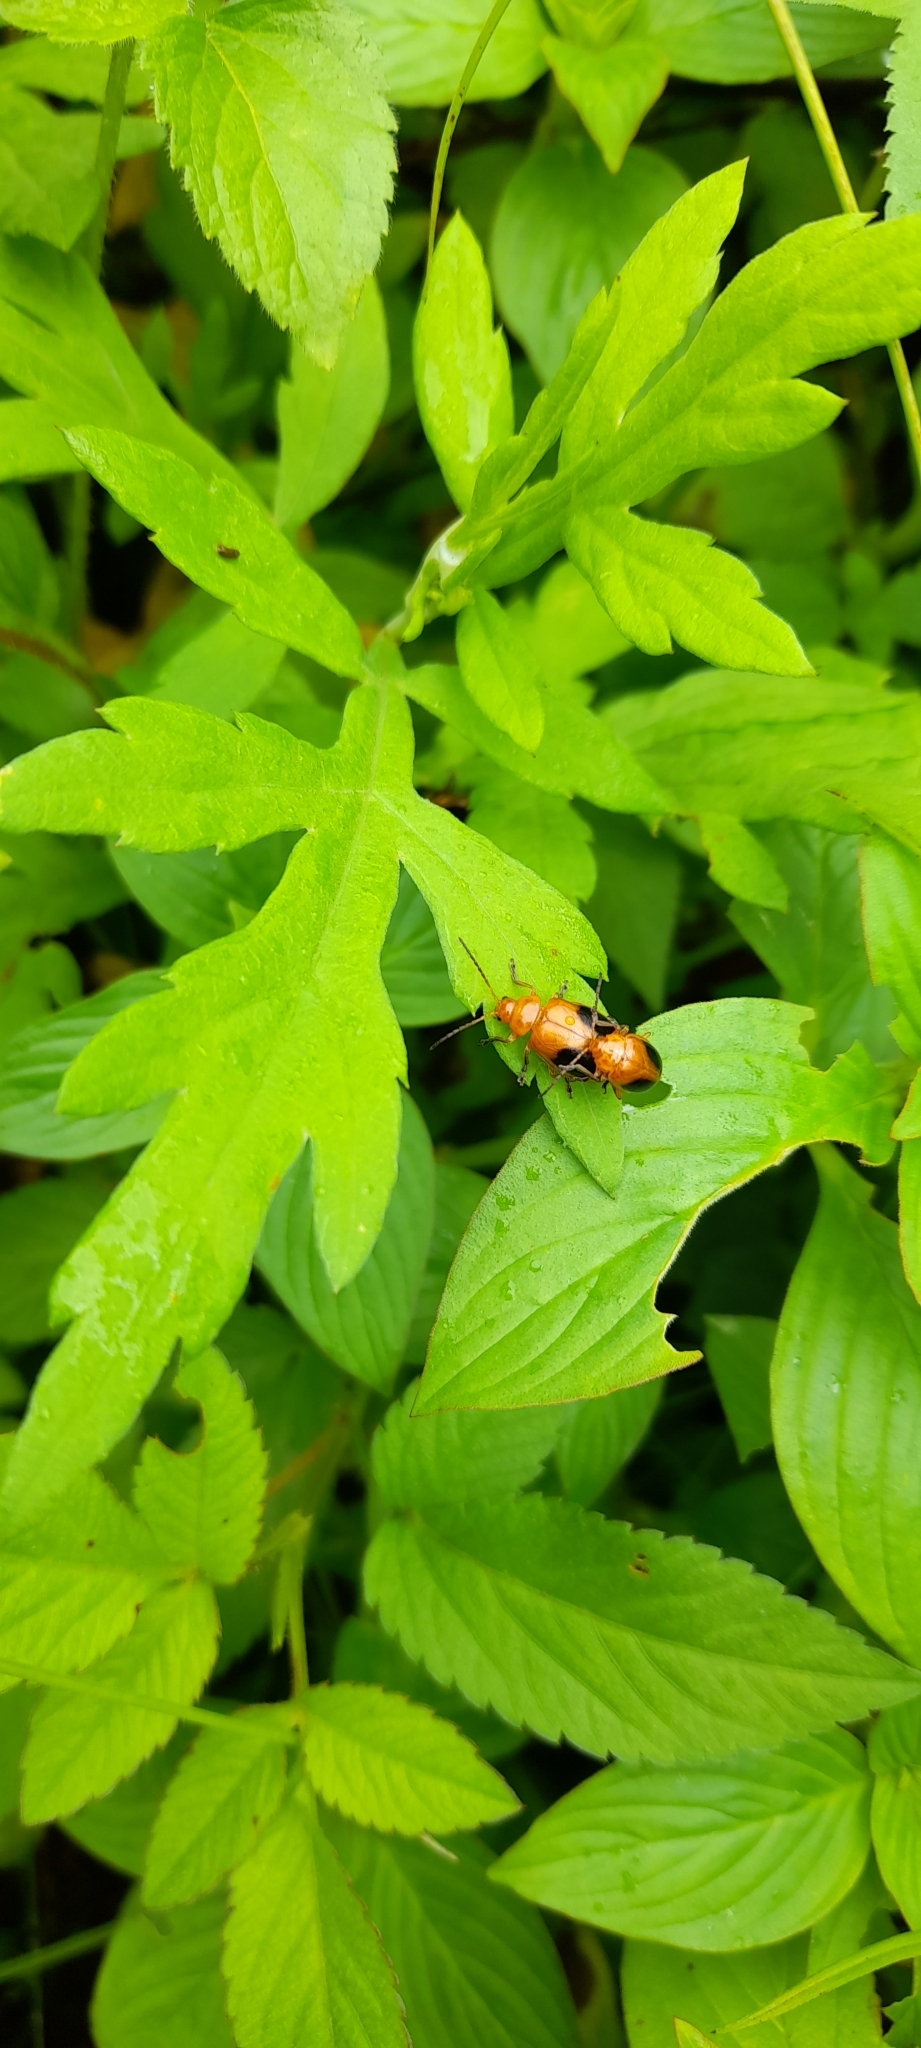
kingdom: Animalia
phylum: Arthropoda
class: Insecta
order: Coleoptera
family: Chrysomelidae
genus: Oides
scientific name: Oides affinis
